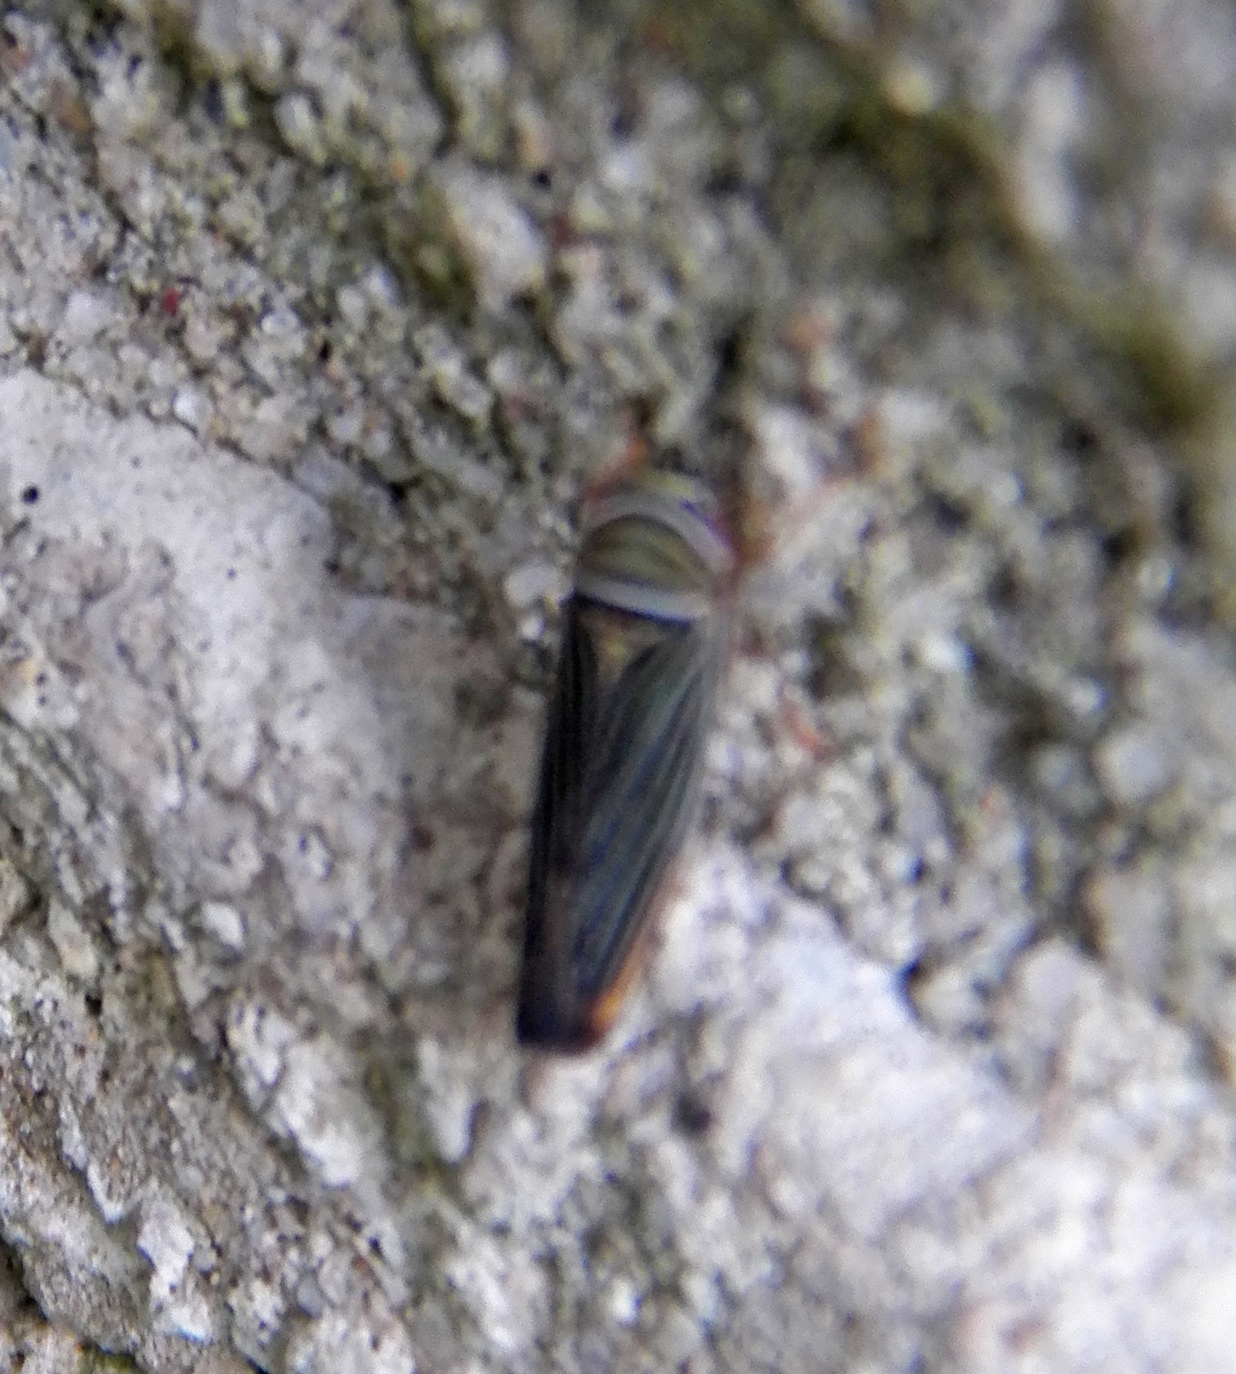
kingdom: Animalia
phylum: Arthropoda
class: Insecta
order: Hemiptera
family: Cicadellidae
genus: Tylozygus
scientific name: Tylozygus bifidus
